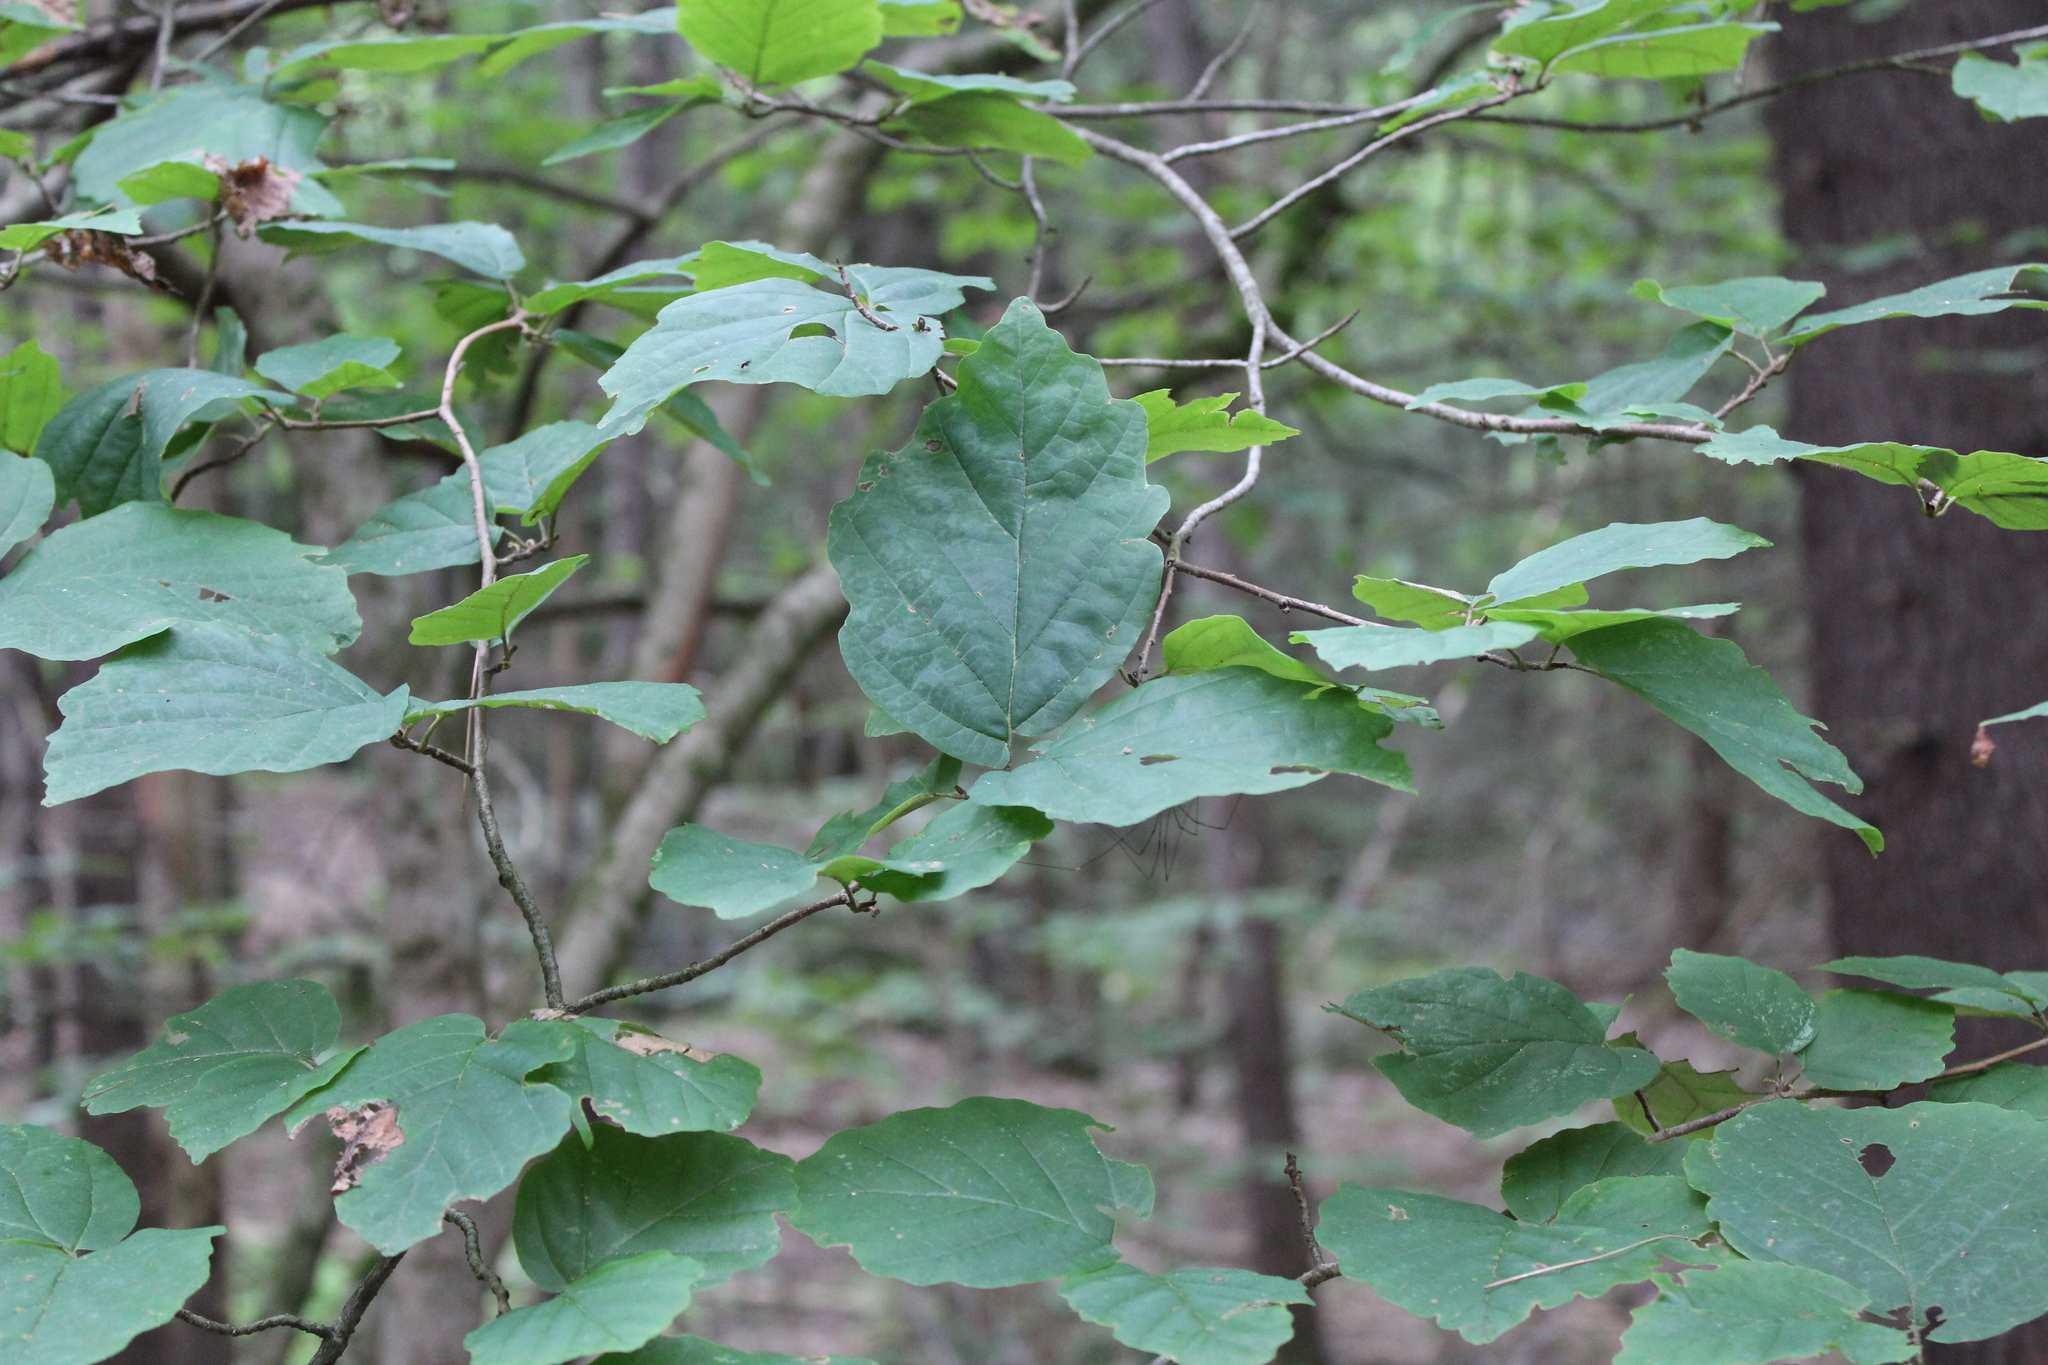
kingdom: Plantae
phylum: Tracheophyta
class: Magnoliopsida
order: Saxifragales
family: Hamamelidaceae
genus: Hamamelis
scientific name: Hamamelis virginiana
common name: Witch-hazel
